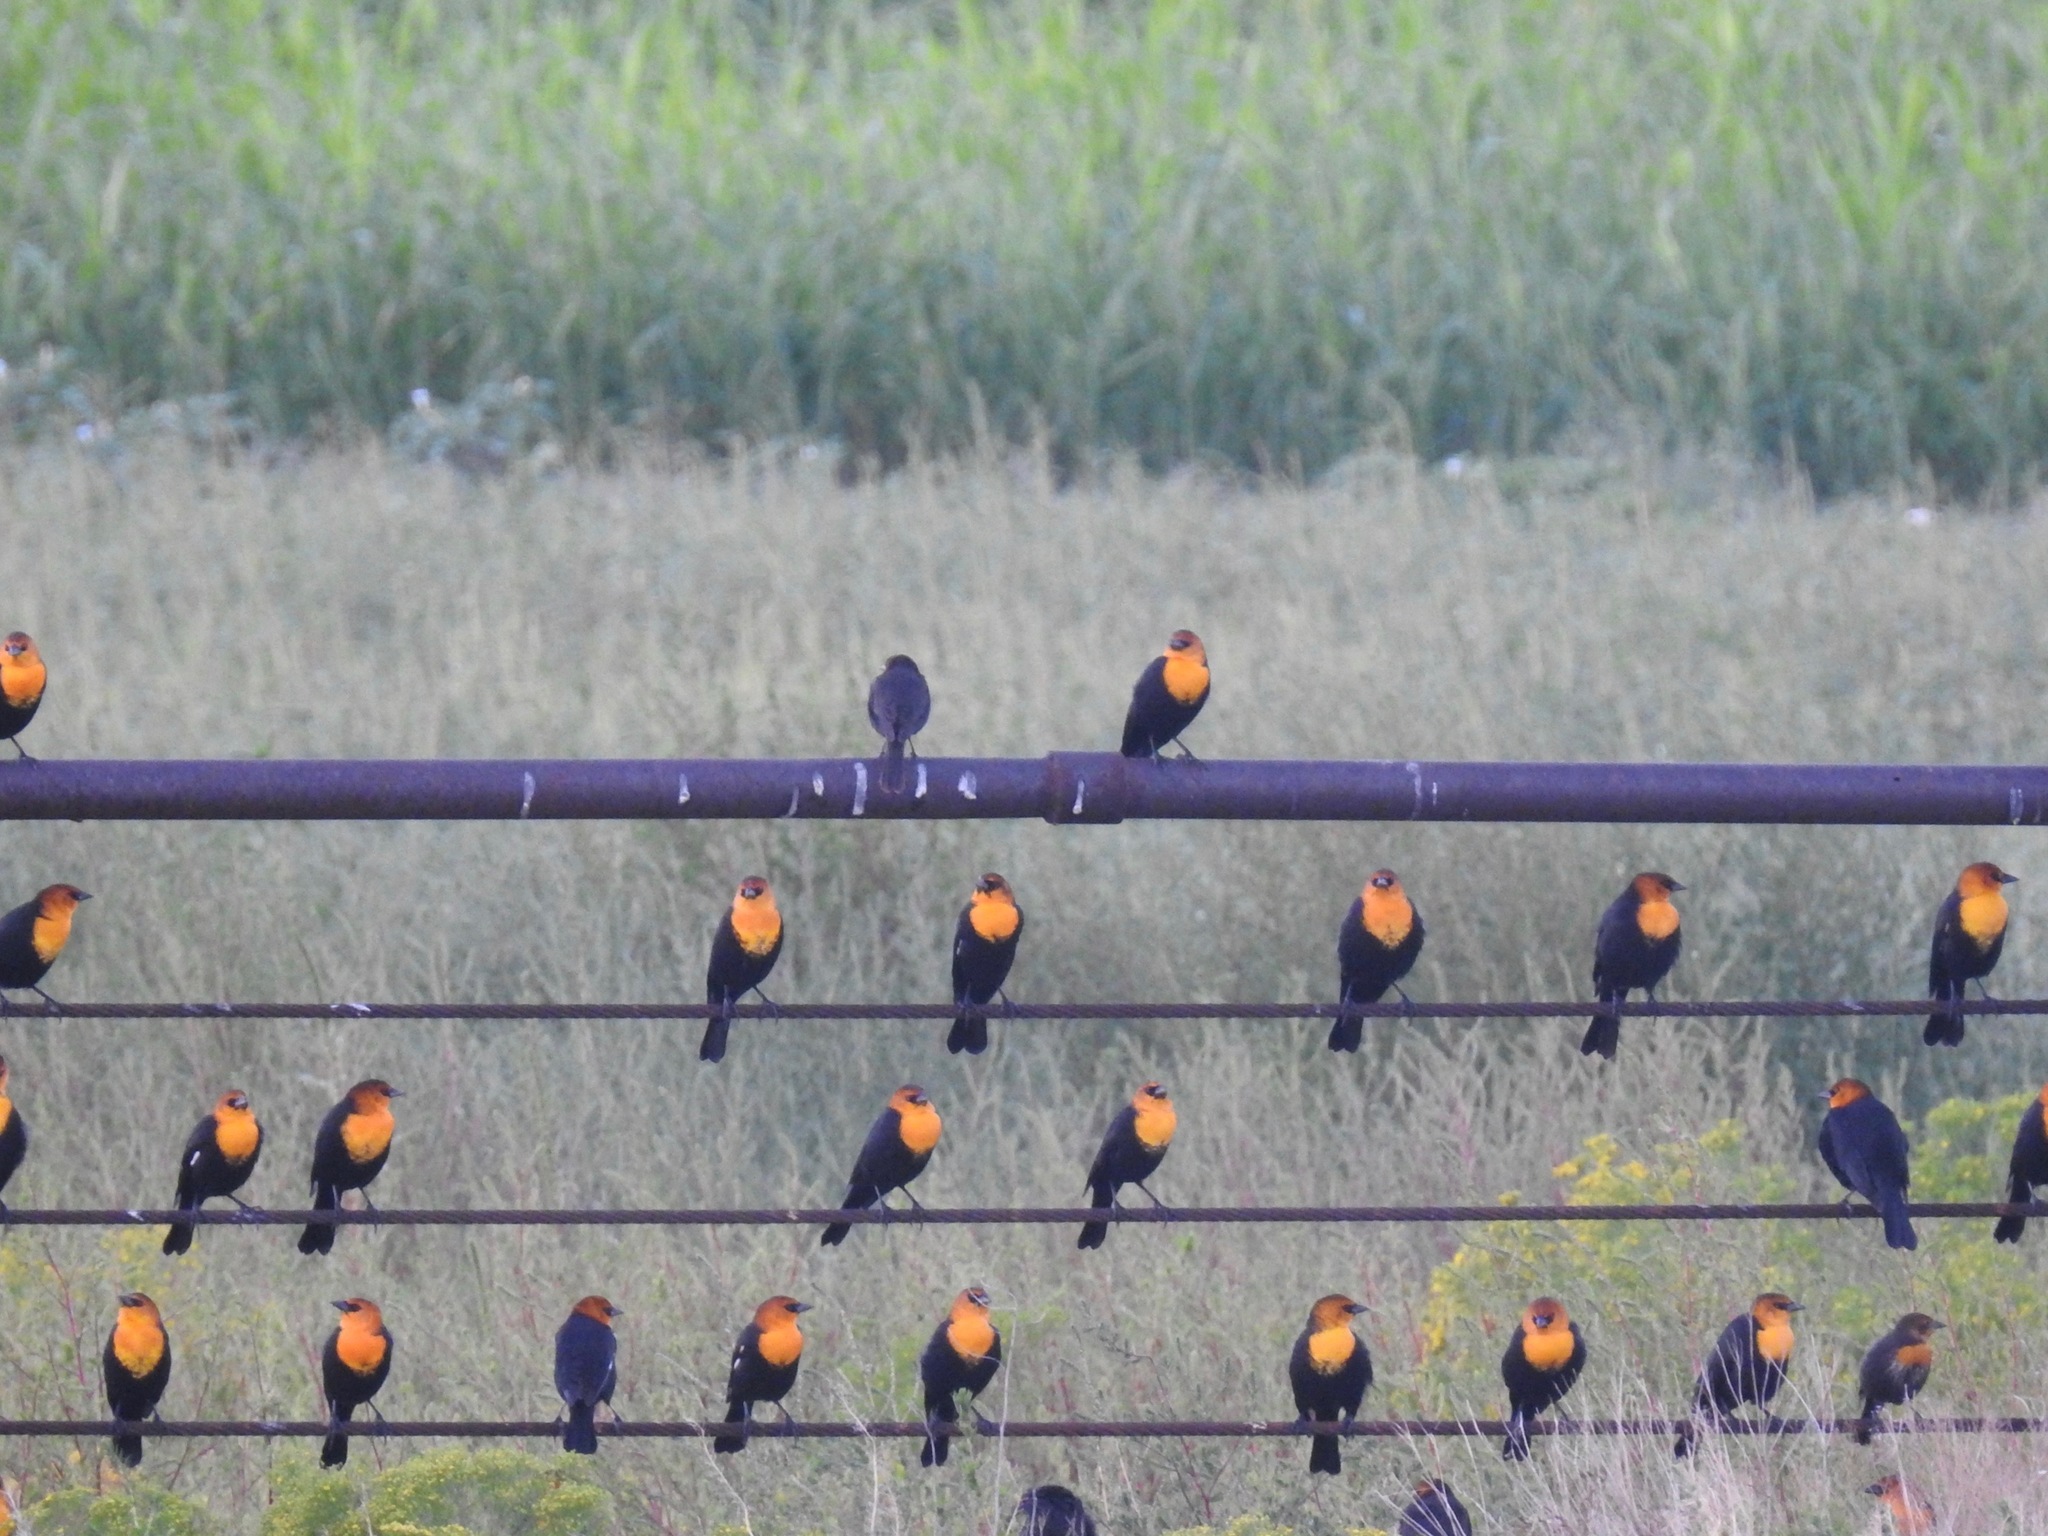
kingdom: Animalia
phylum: Chordata
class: Aves
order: Passeriformes
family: Icteridae
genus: Xanthocephalus
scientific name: Xanthocephalus xanthocephalus
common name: Yellow-headed blackbird
